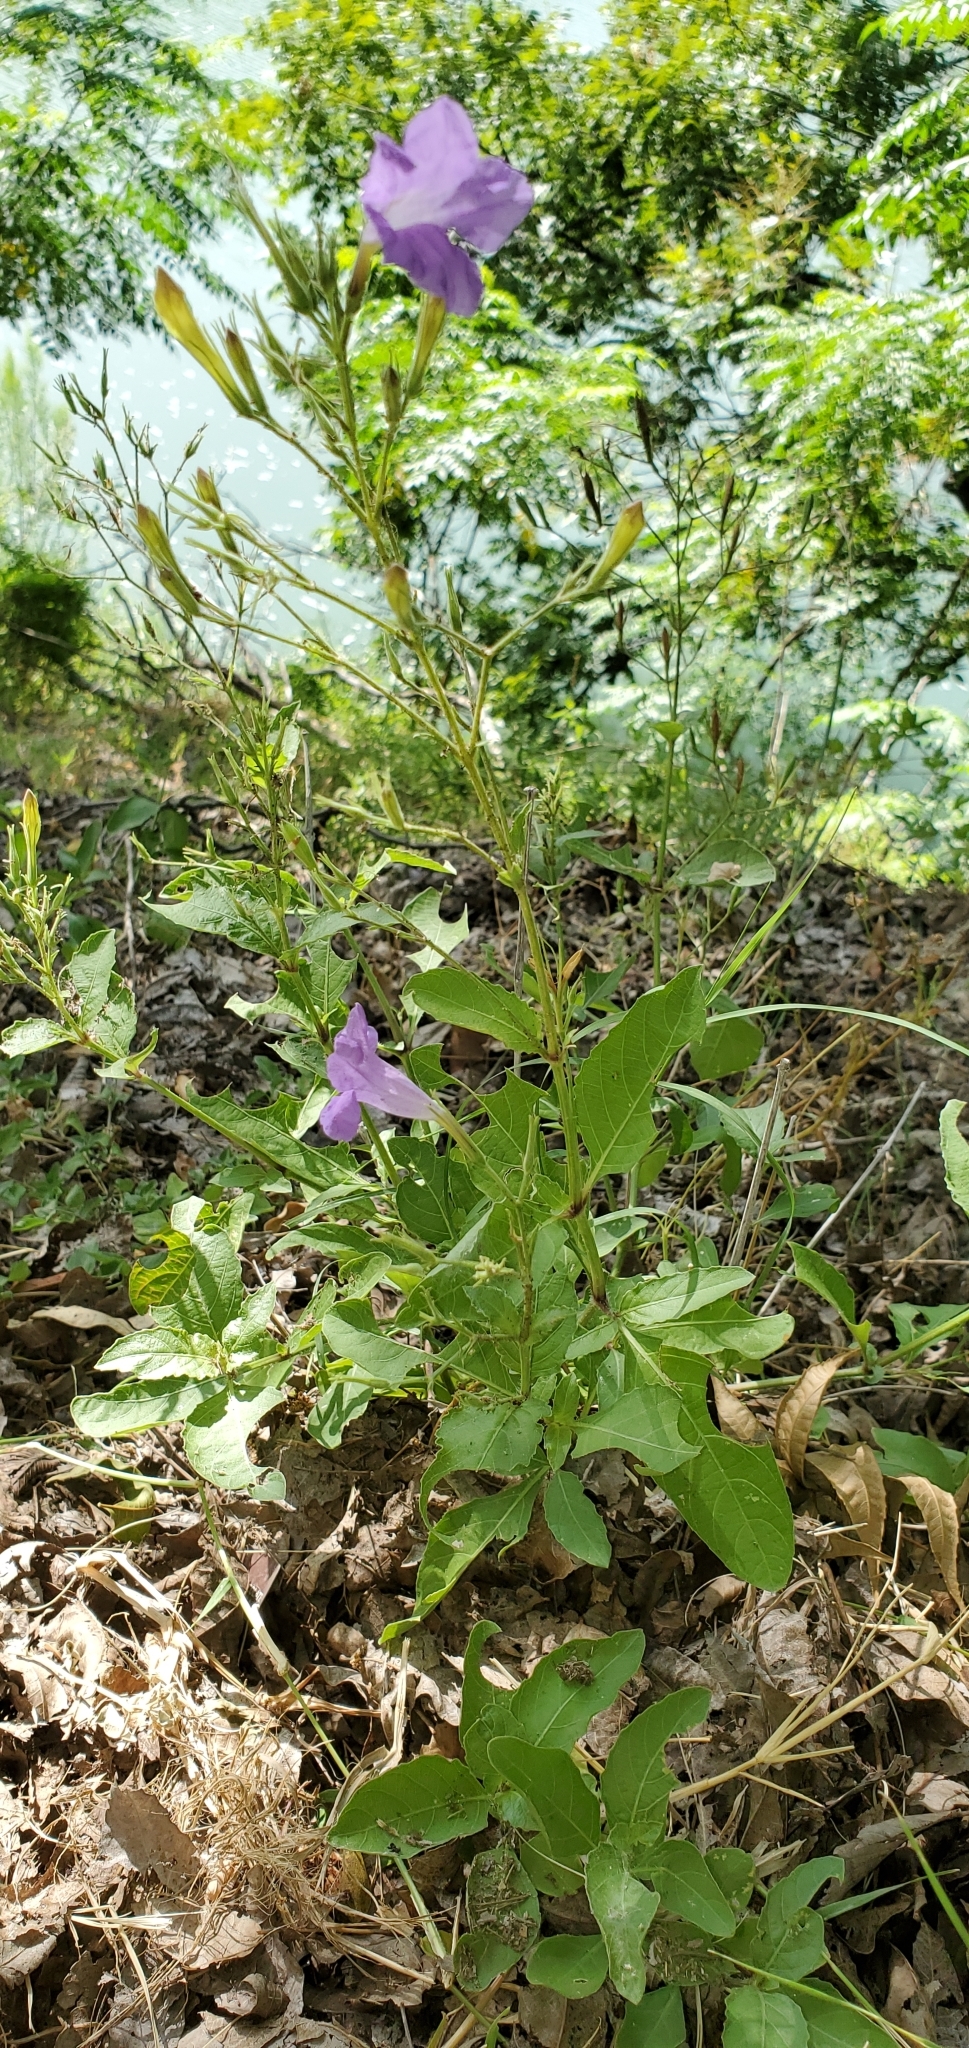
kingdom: Plantae
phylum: Tracheophyta
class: Magnoliopsida
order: Lamiales
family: Acanthaceae
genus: Ruellia
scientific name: Ruellia ciliatiflora
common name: Hairyflower wild petunia
